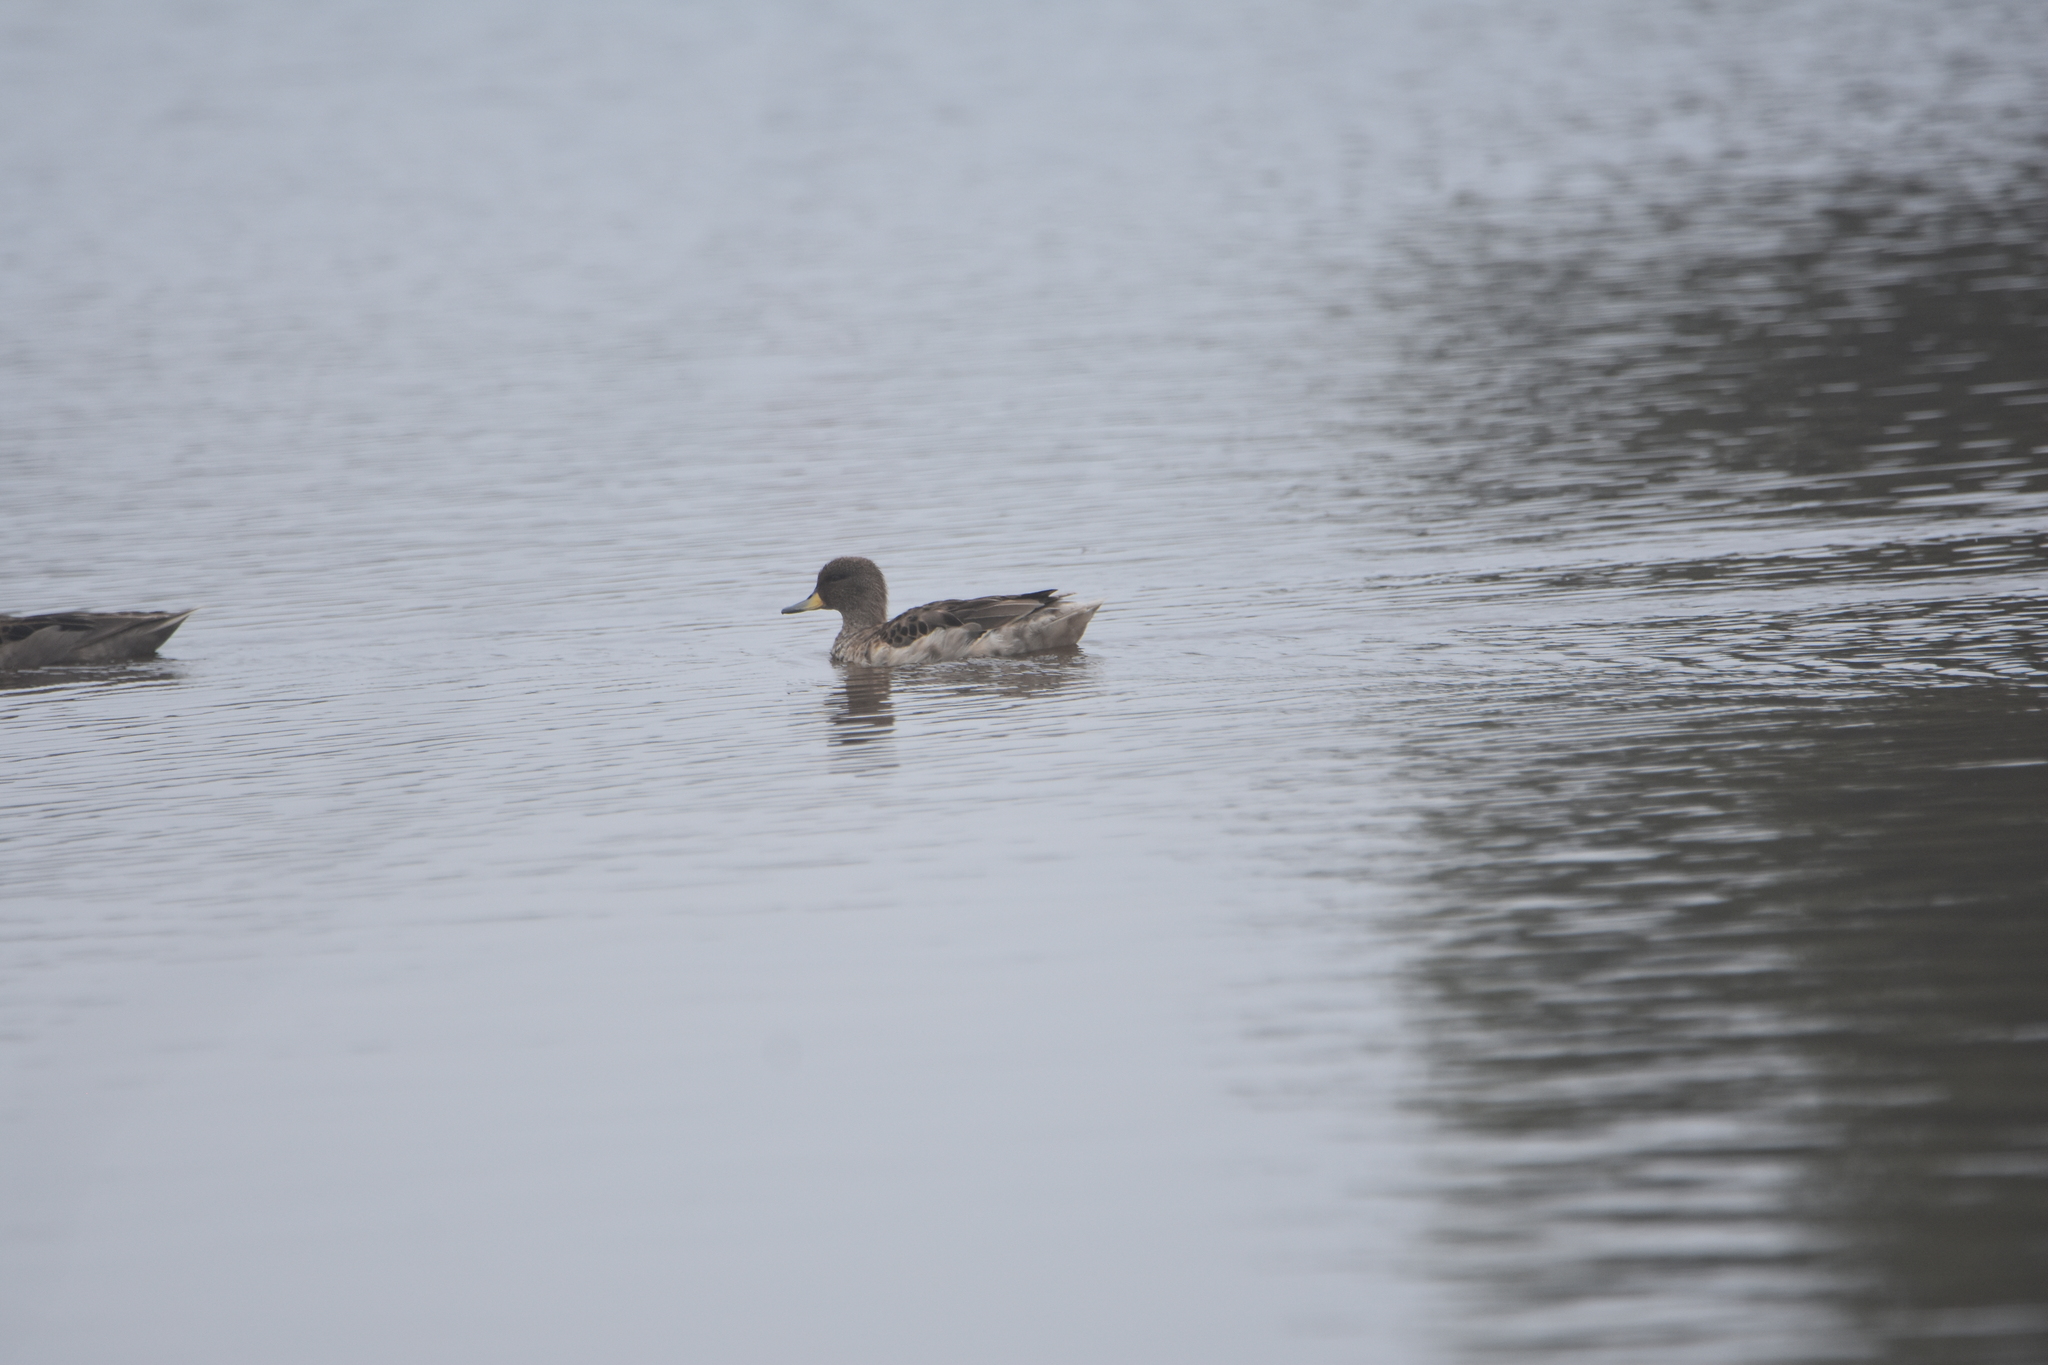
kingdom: Animalia
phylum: Chordata
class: Aves
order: Anseriformes
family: Anatidae
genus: Anas
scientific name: Anas flavirostris
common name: Yellow-billed teal
